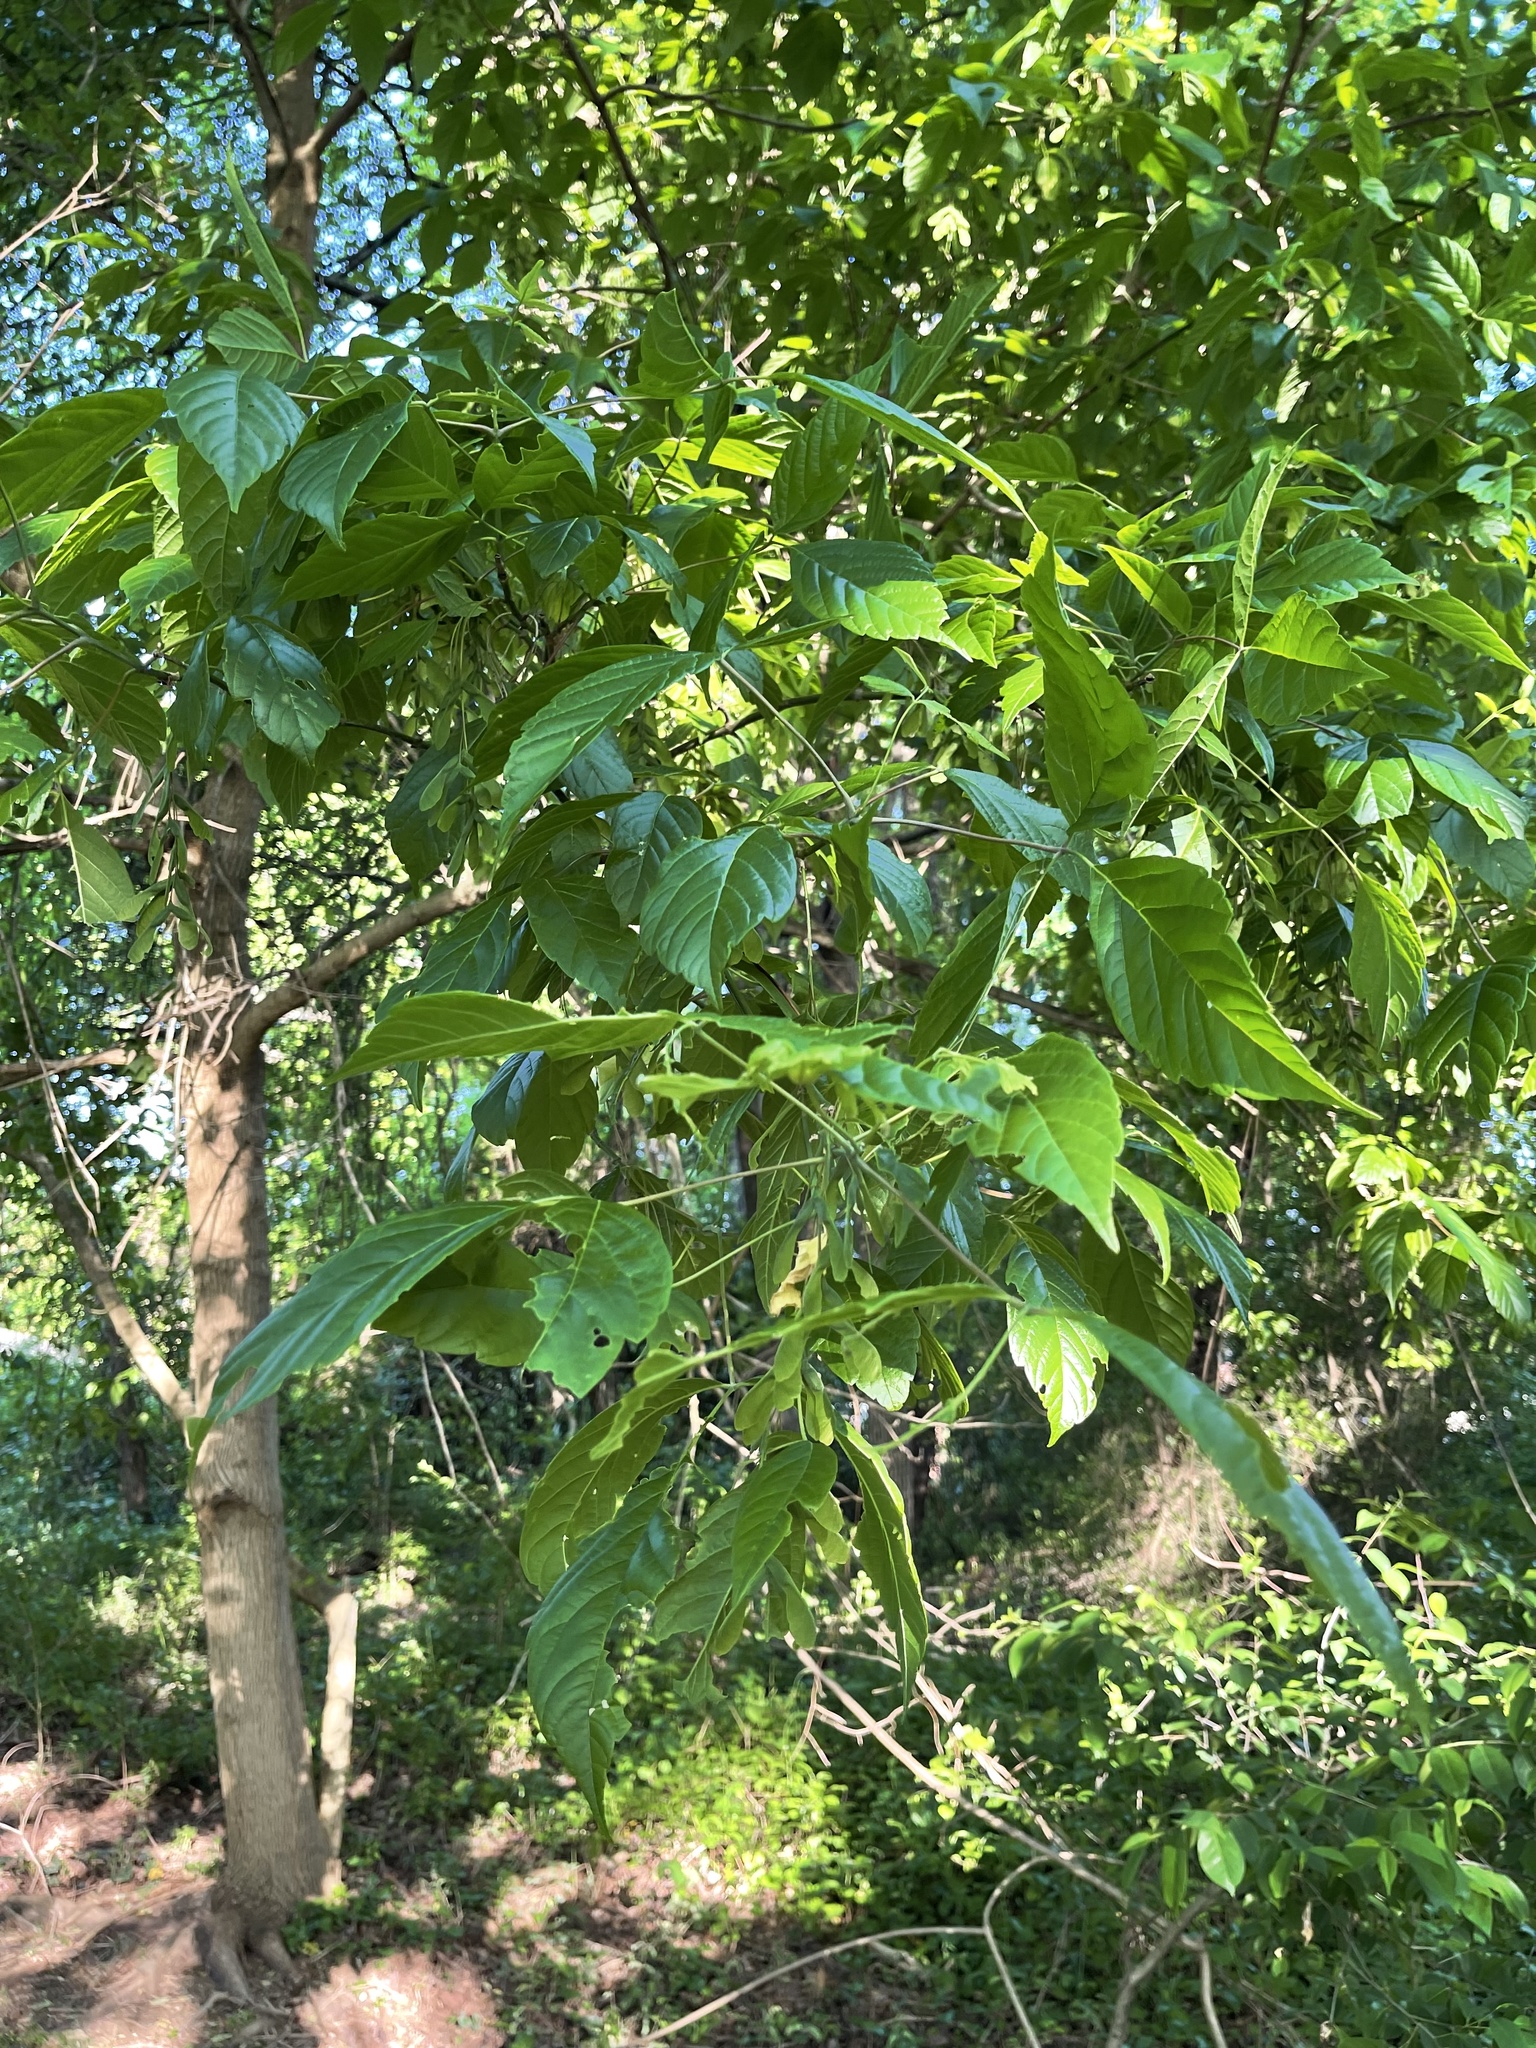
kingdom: Plantae
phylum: Tracheophyta
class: Magnoliopsida
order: Sapindales
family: Sapindaceae
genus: Acer
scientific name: Acer negundo
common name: Ashleaf maple
